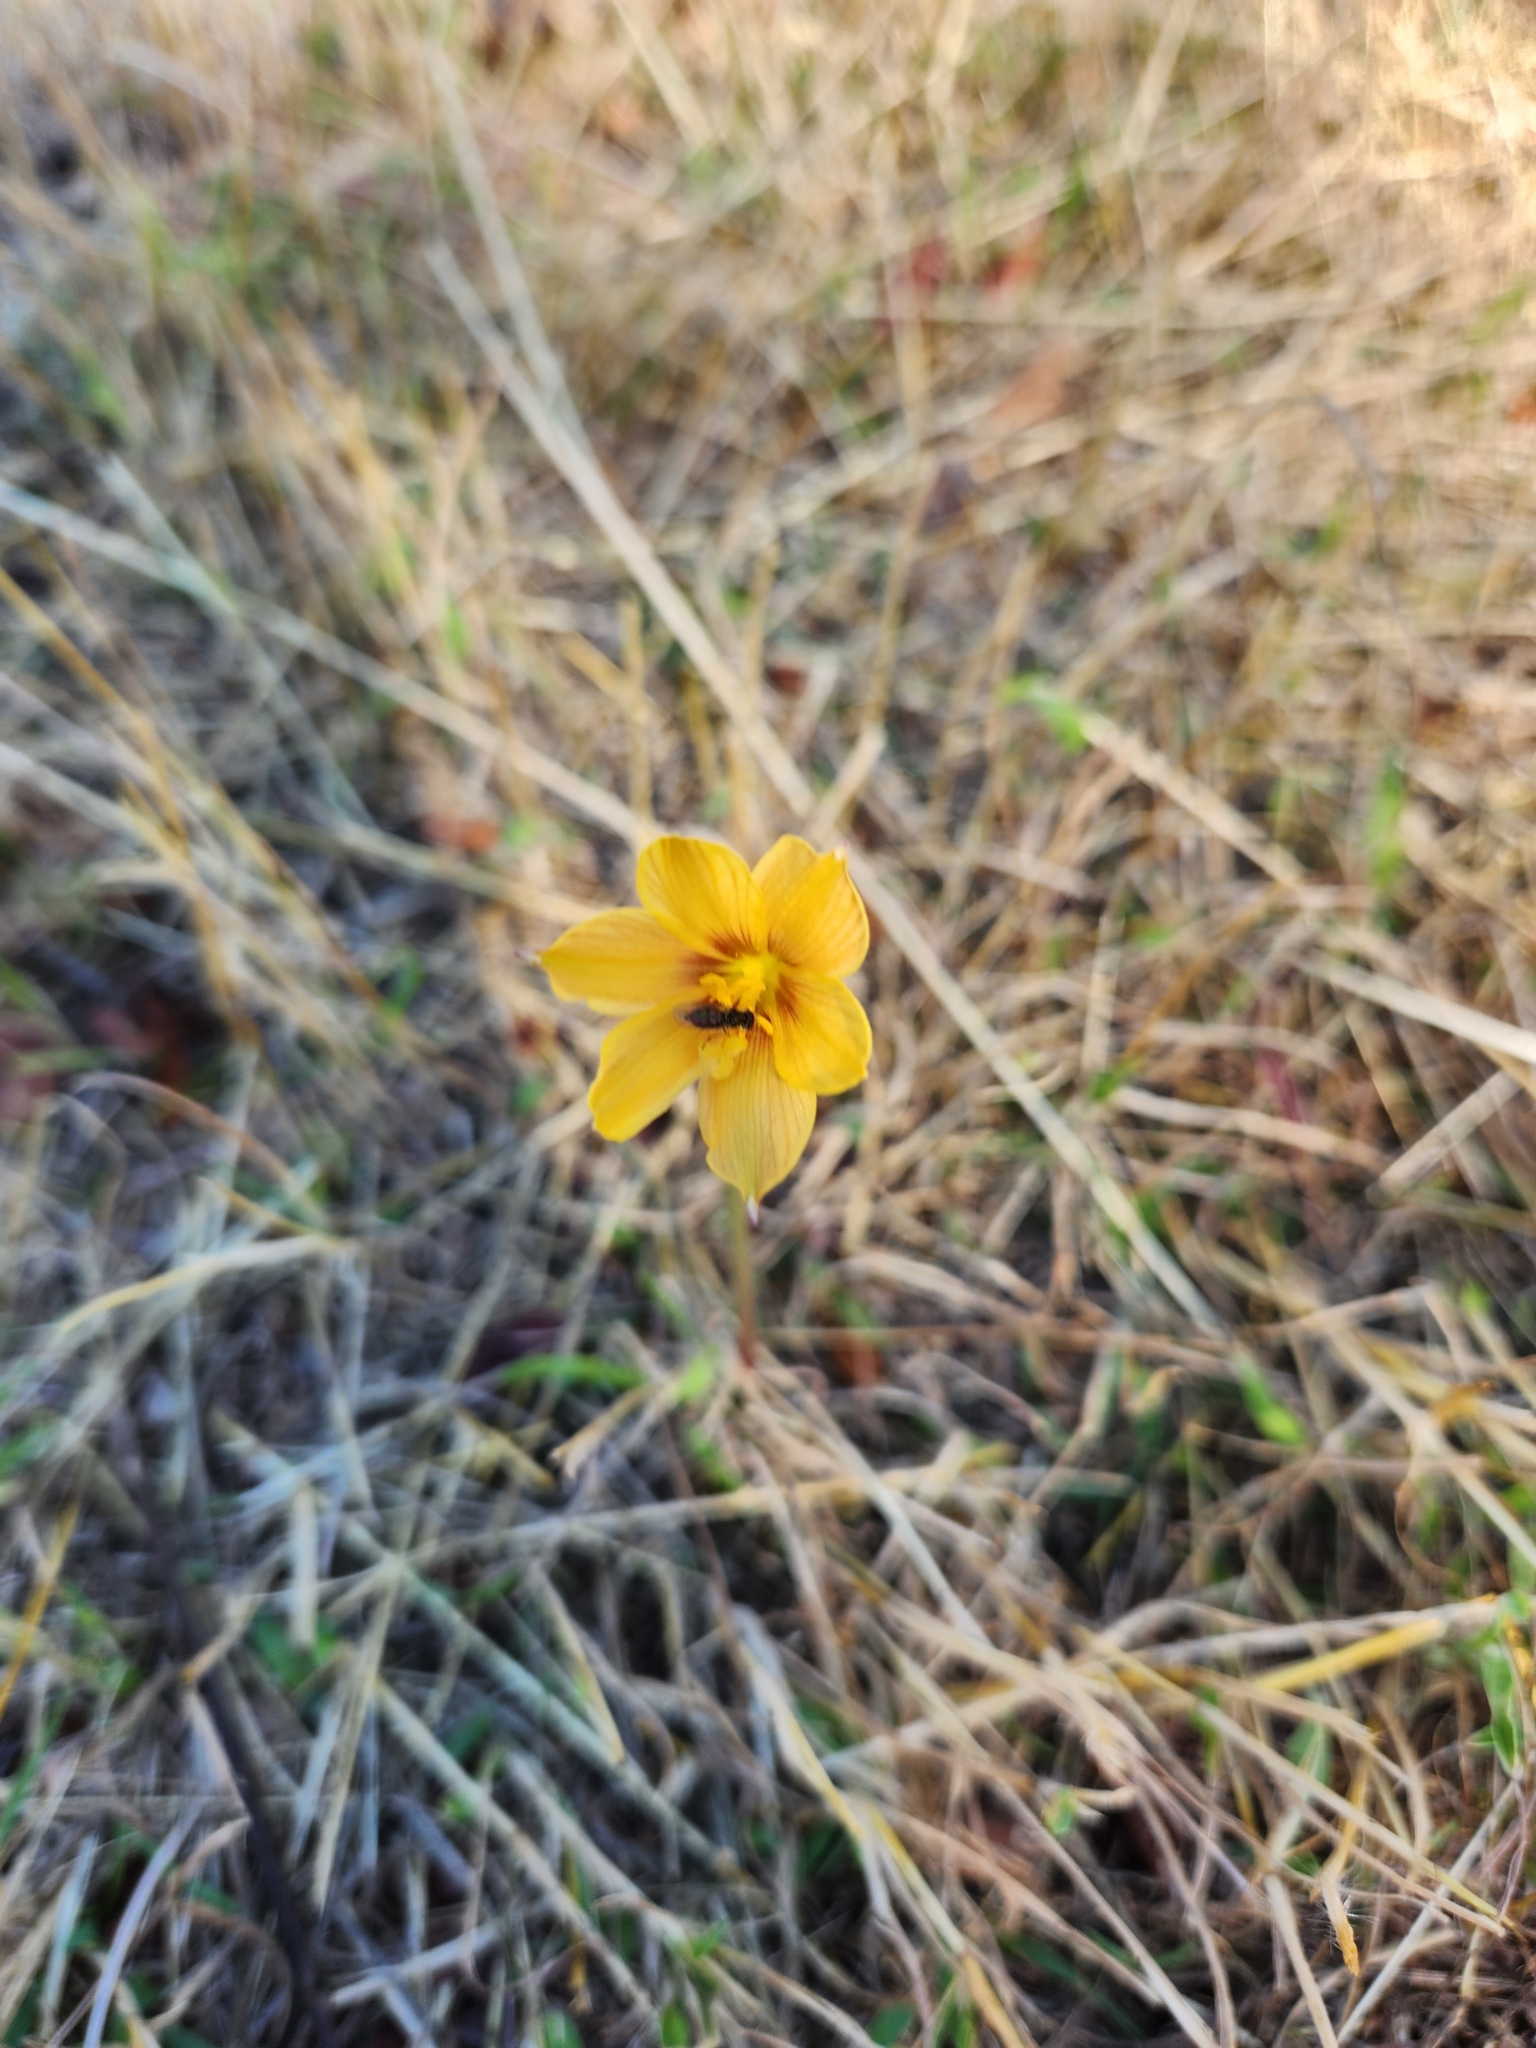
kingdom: Plantae
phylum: Tracheophyta
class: Liliopsida
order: Asparagales
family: Amaryllidaceae
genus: Zephyranthes
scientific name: Zephyranthes tubispatha
